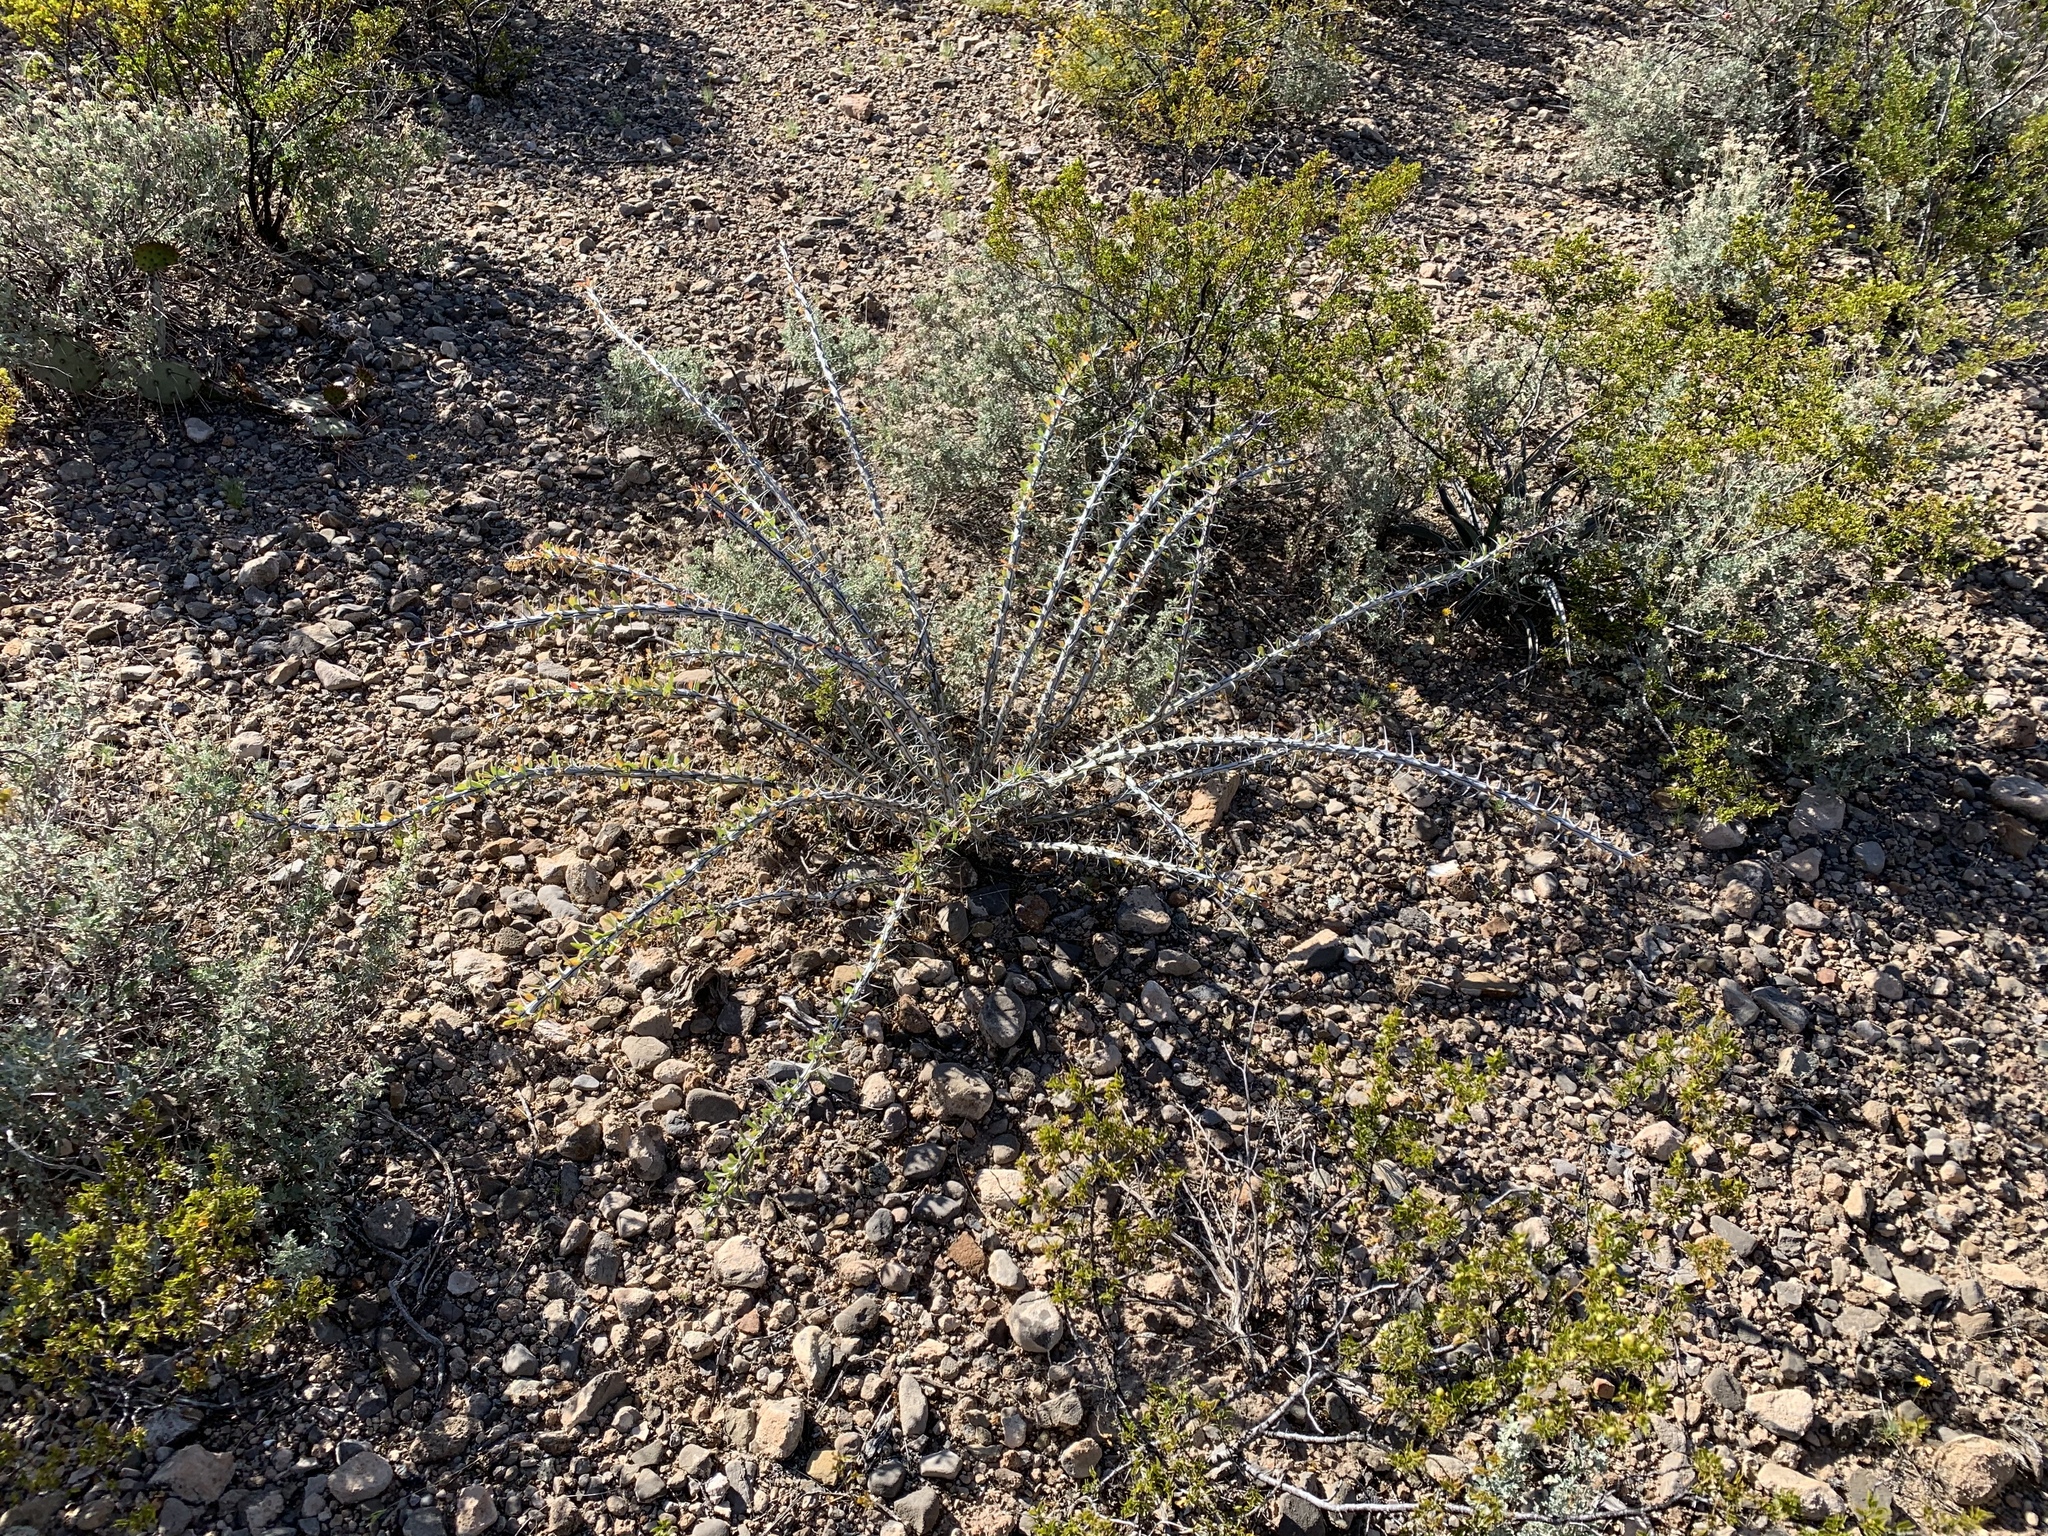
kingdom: Plantae
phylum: Tracheophyta
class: Magnoliopsida
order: Ericales
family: Fouquieriaceae
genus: Fouquieria
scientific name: Fouquieria splendens
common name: Vine-cactus
